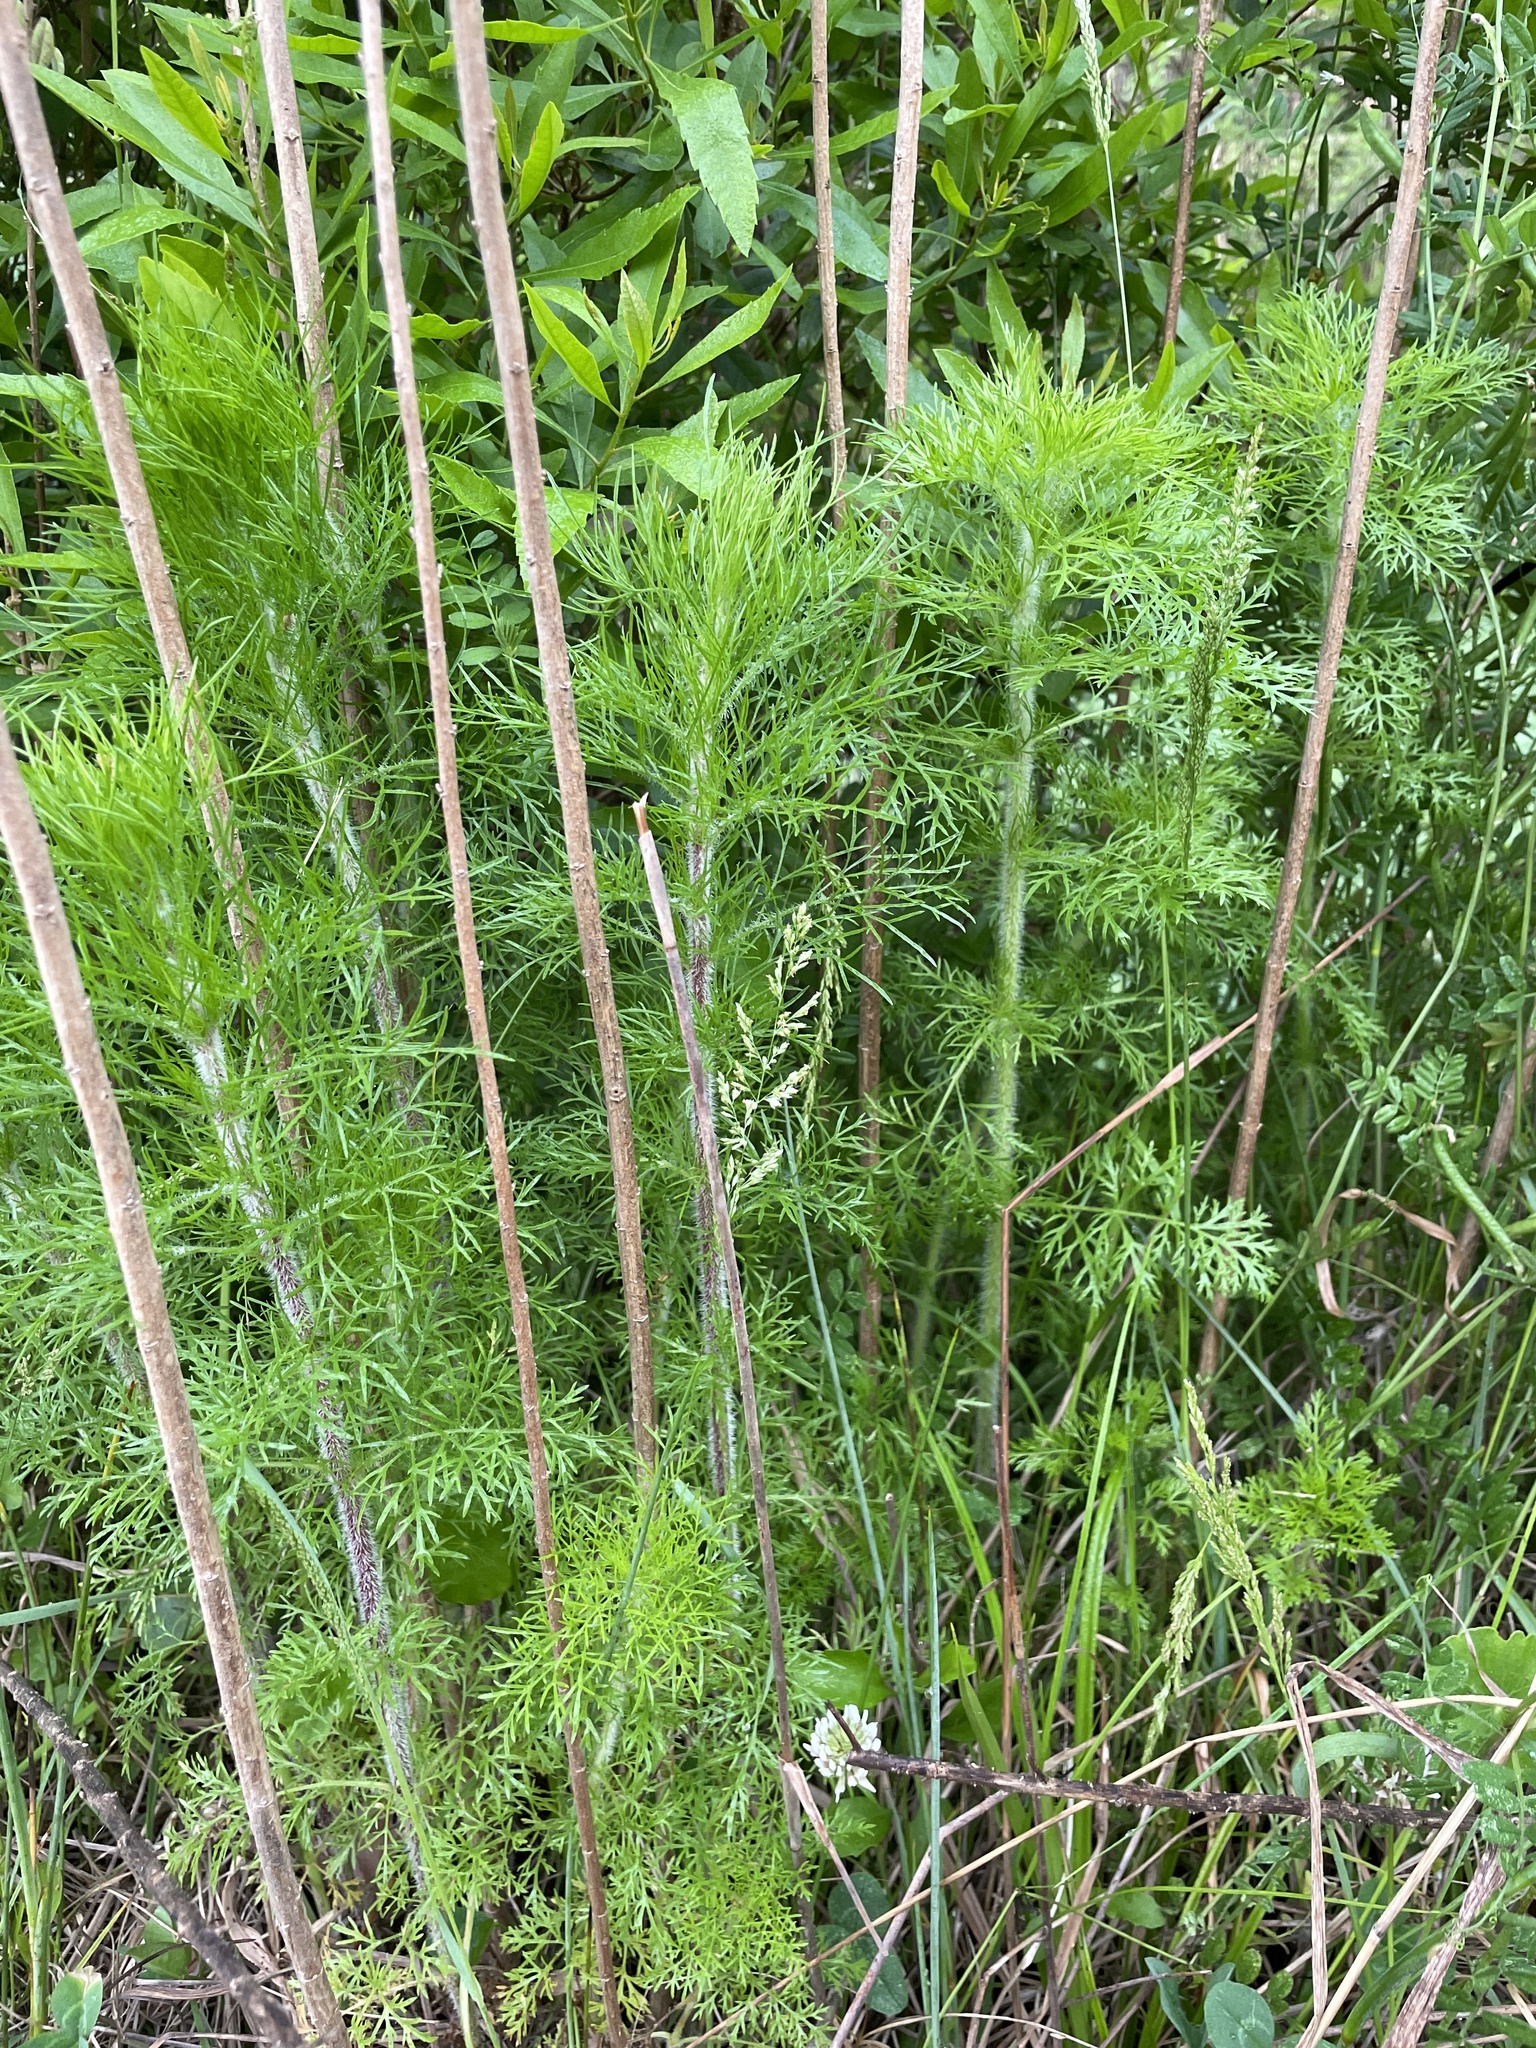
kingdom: Plantae
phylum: Tracheophyta
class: Magnoliopsida
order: Asterales
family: Asteraceae
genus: Eupatorium
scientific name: Eupatorium capillifolium
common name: Dog-fennel
